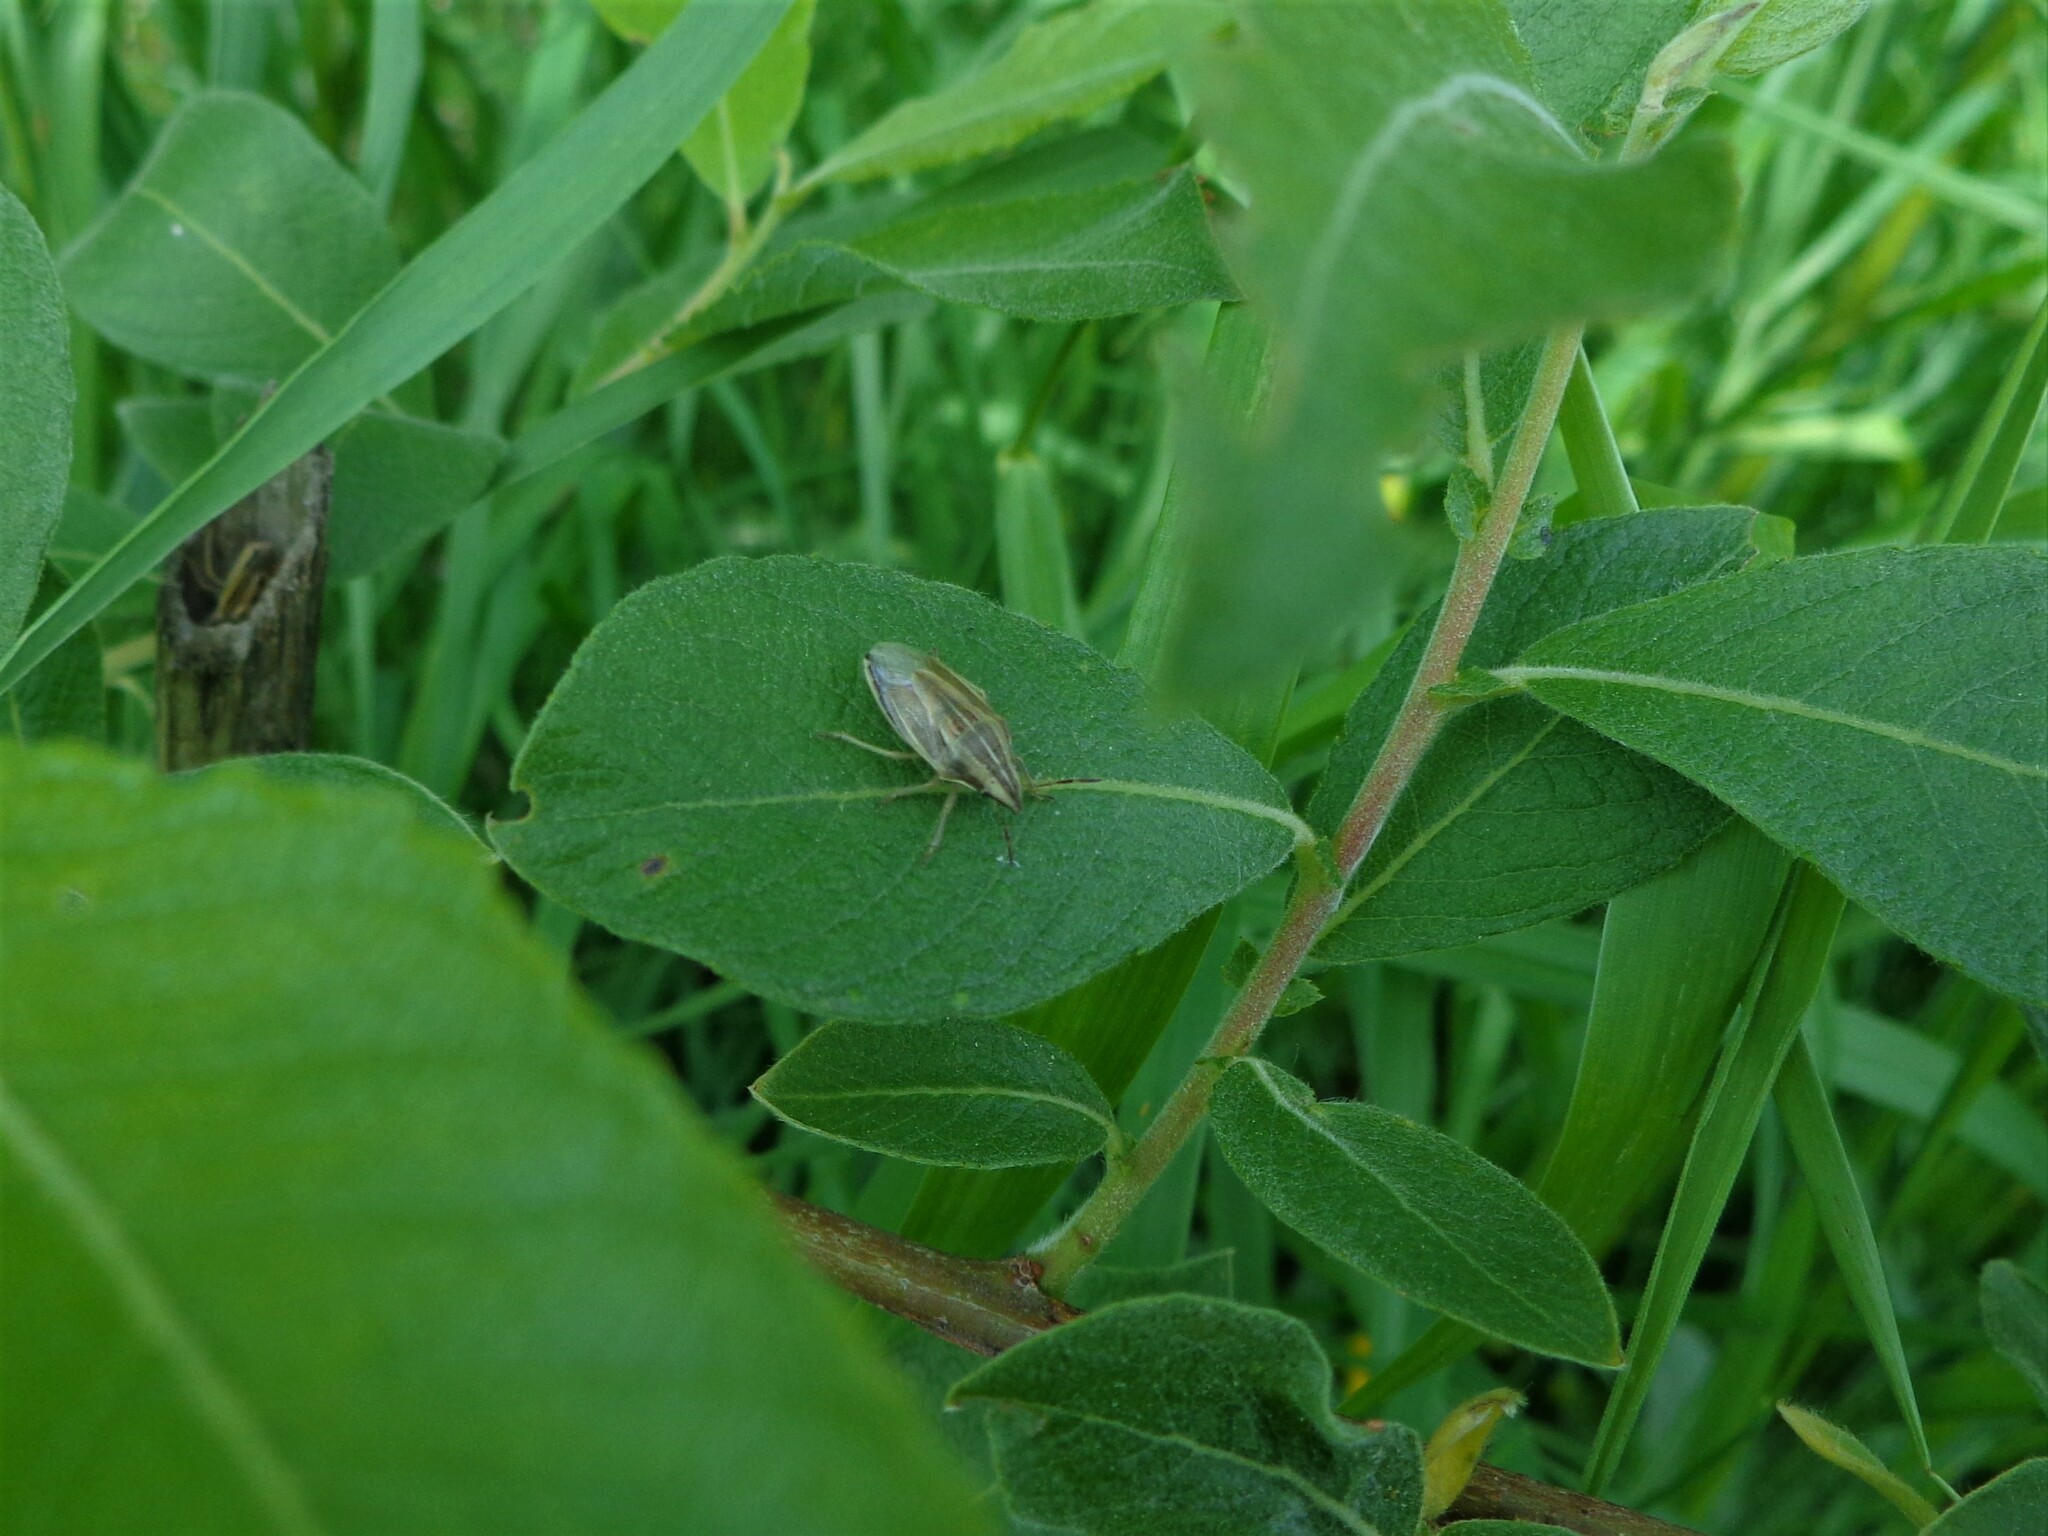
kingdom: Animalia
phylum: Arthropoda
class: Insecta
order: Hemiptera
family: Pentatomidae
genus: Aelia
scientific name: Aelia acuminata
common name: Bishop's mitre
